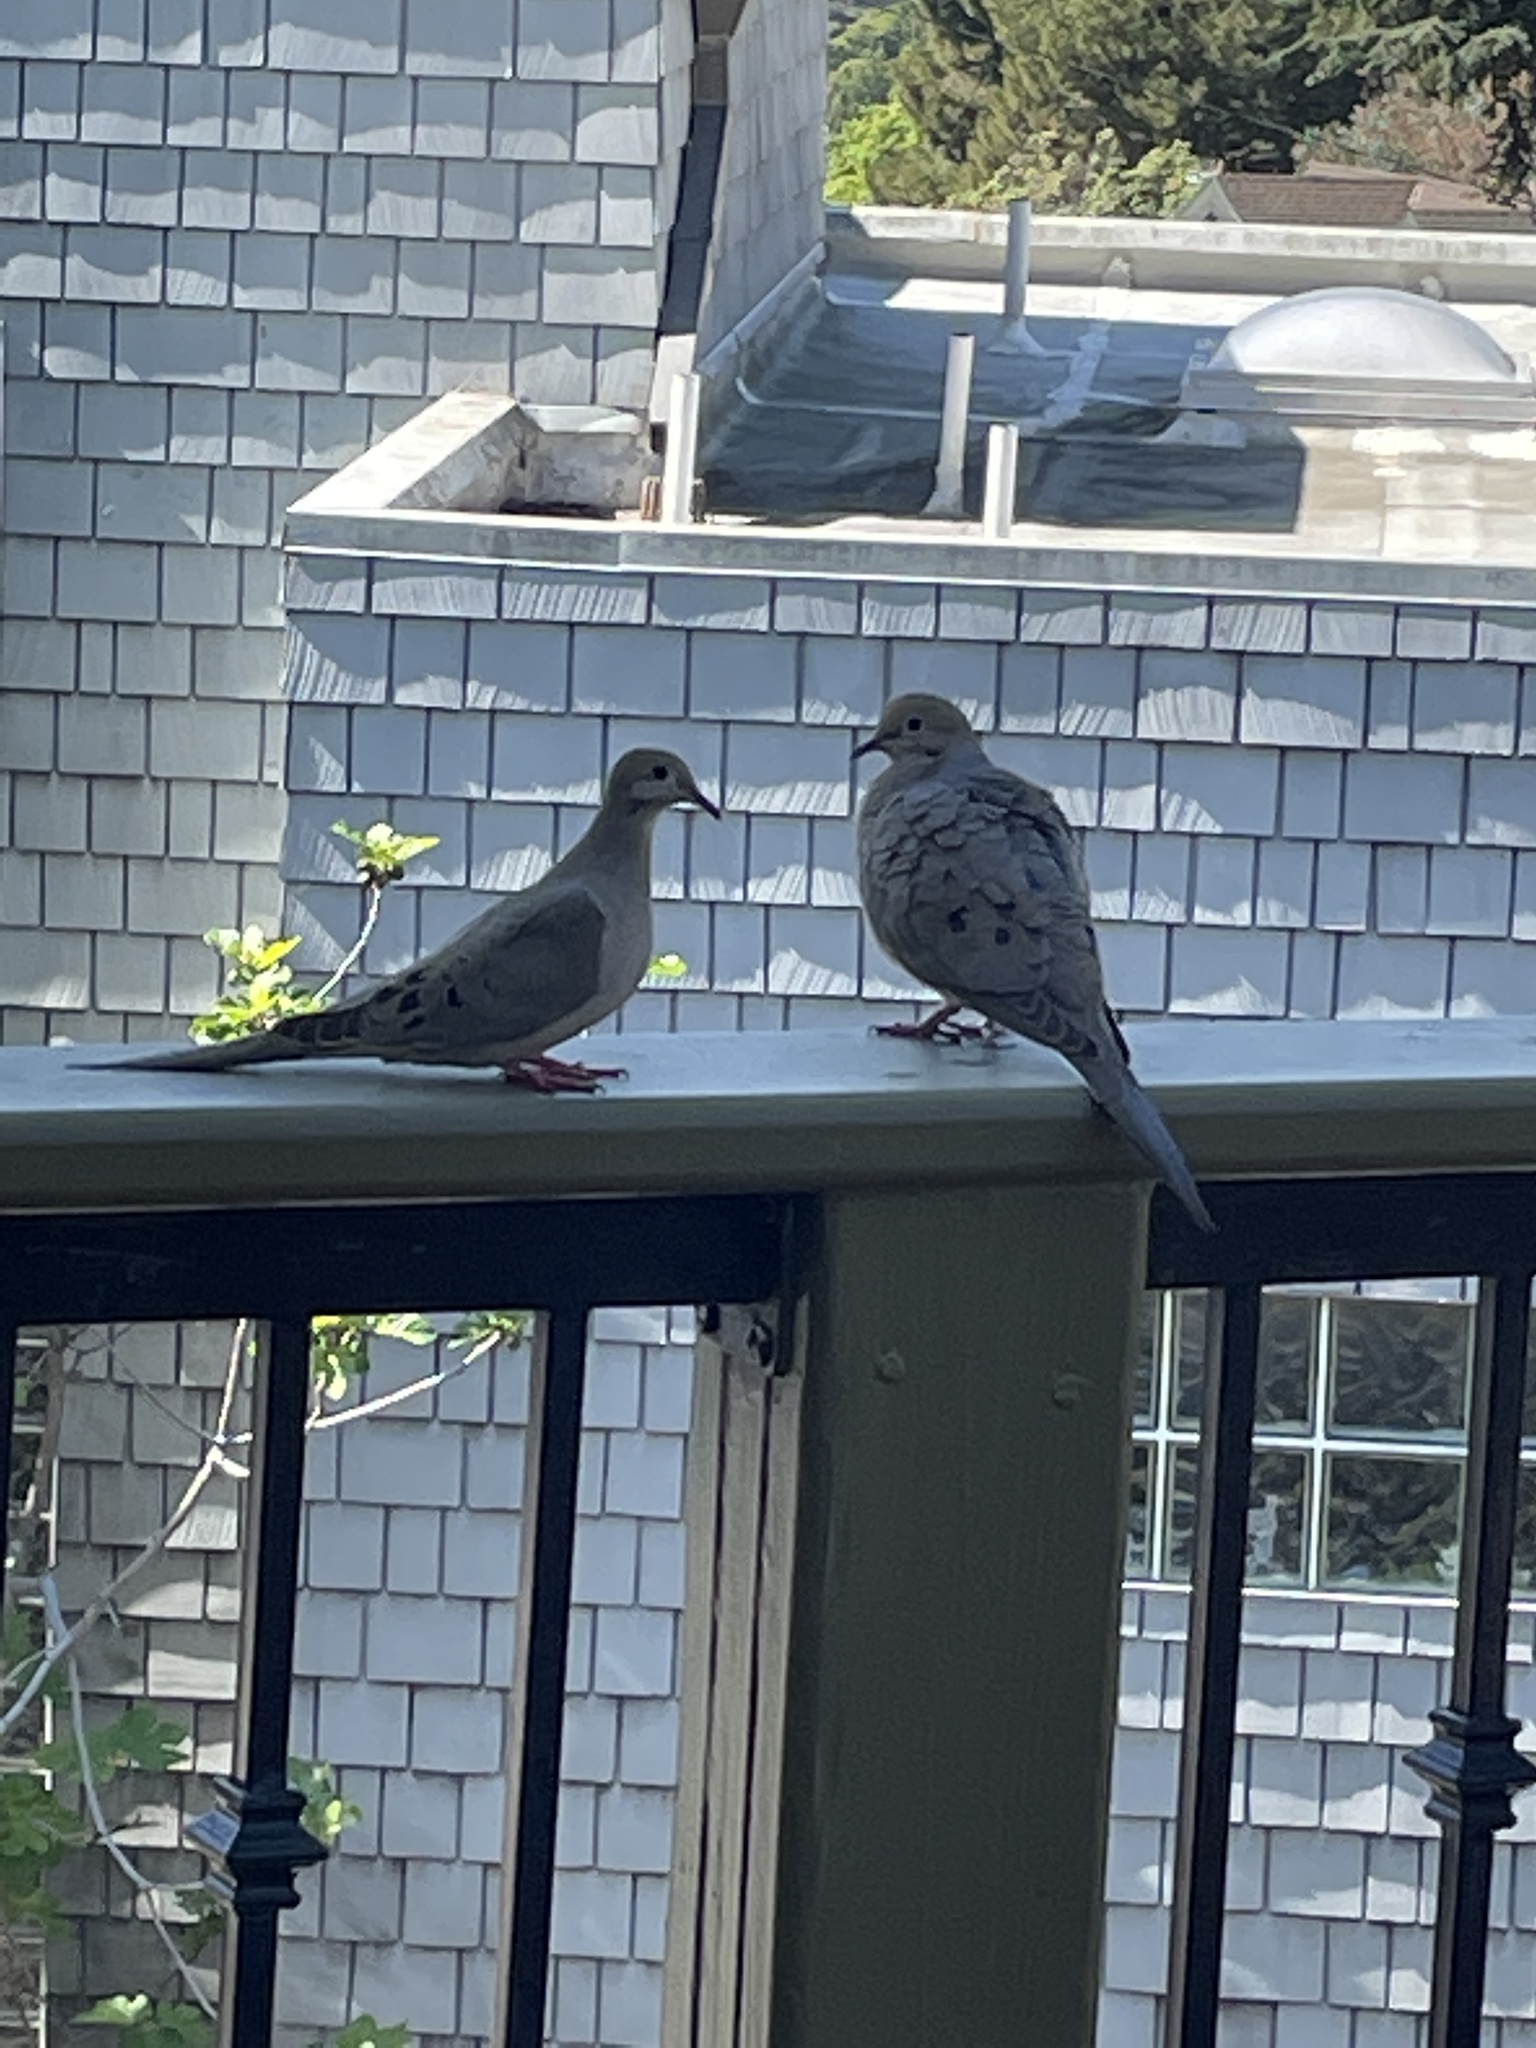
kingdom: Animalia
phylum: Chordata
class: Aves
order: Columbiformes
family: Columbidae
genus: Zenaida
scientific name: Zenaida macroura
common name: Mourning dove
